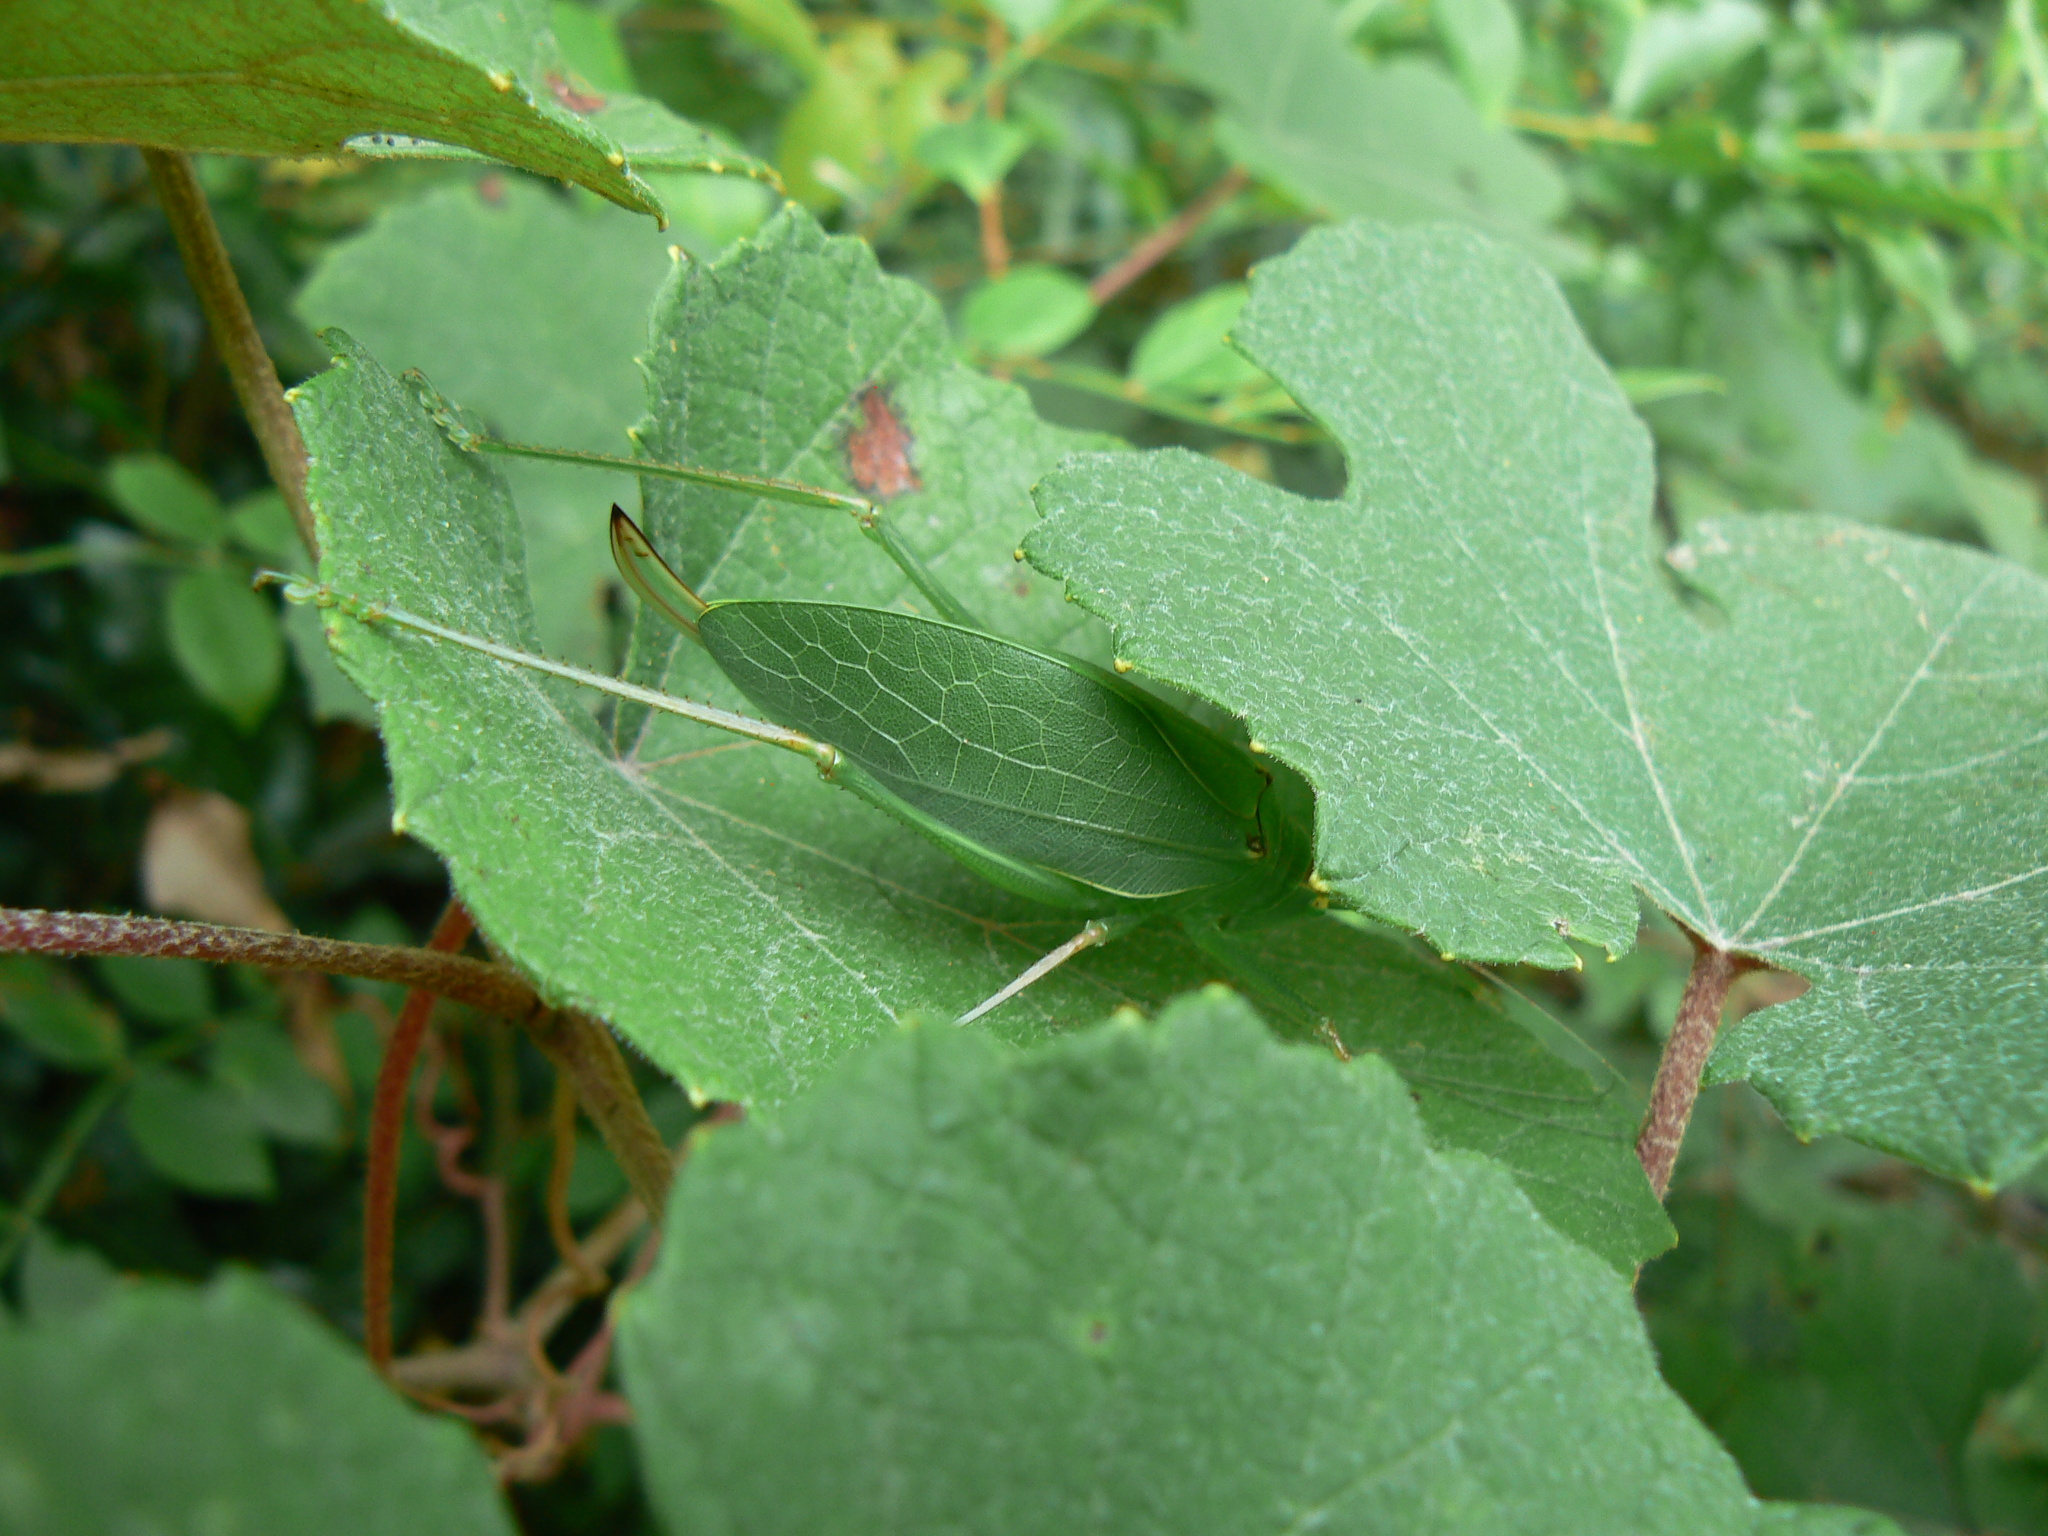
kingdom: Animalia
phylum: Arthropoda
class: Insecta
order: Orthoptera
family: Tettigoniidae
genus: Pterophylla
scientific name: Pterophylla camellifolia
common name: Common true katydid
